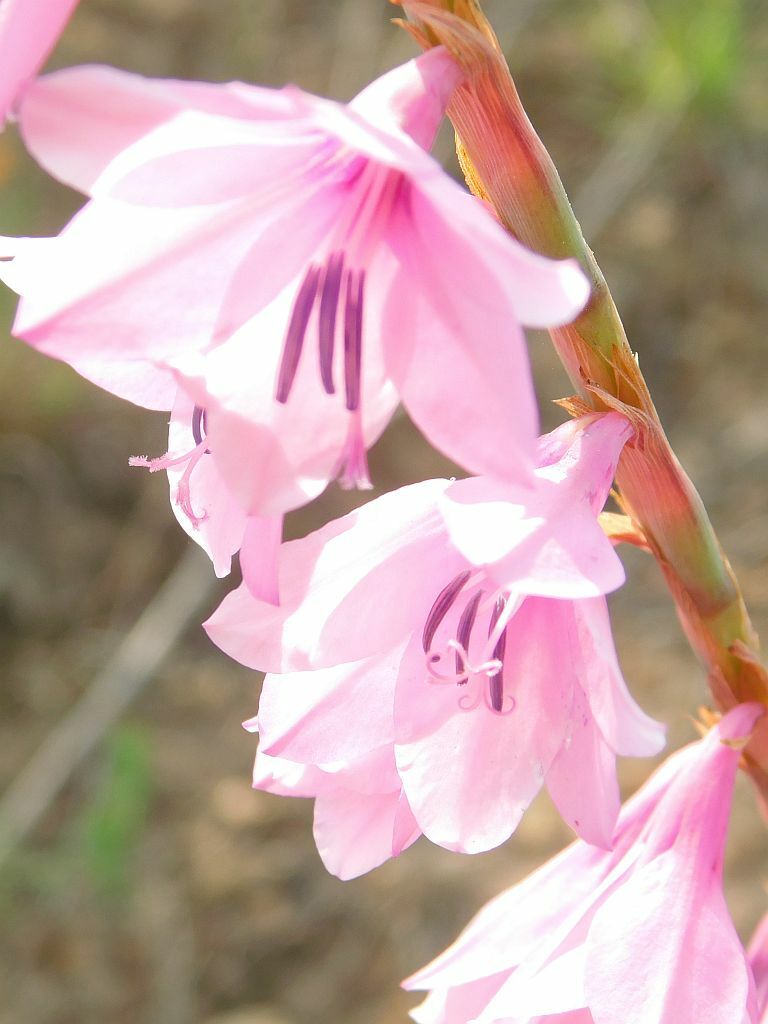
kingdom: Plantae
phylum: Tracheophyta
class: Liliopsida
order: Asparagales
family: Iridaceae
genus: Watsonia
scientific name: Watsonia laccata
